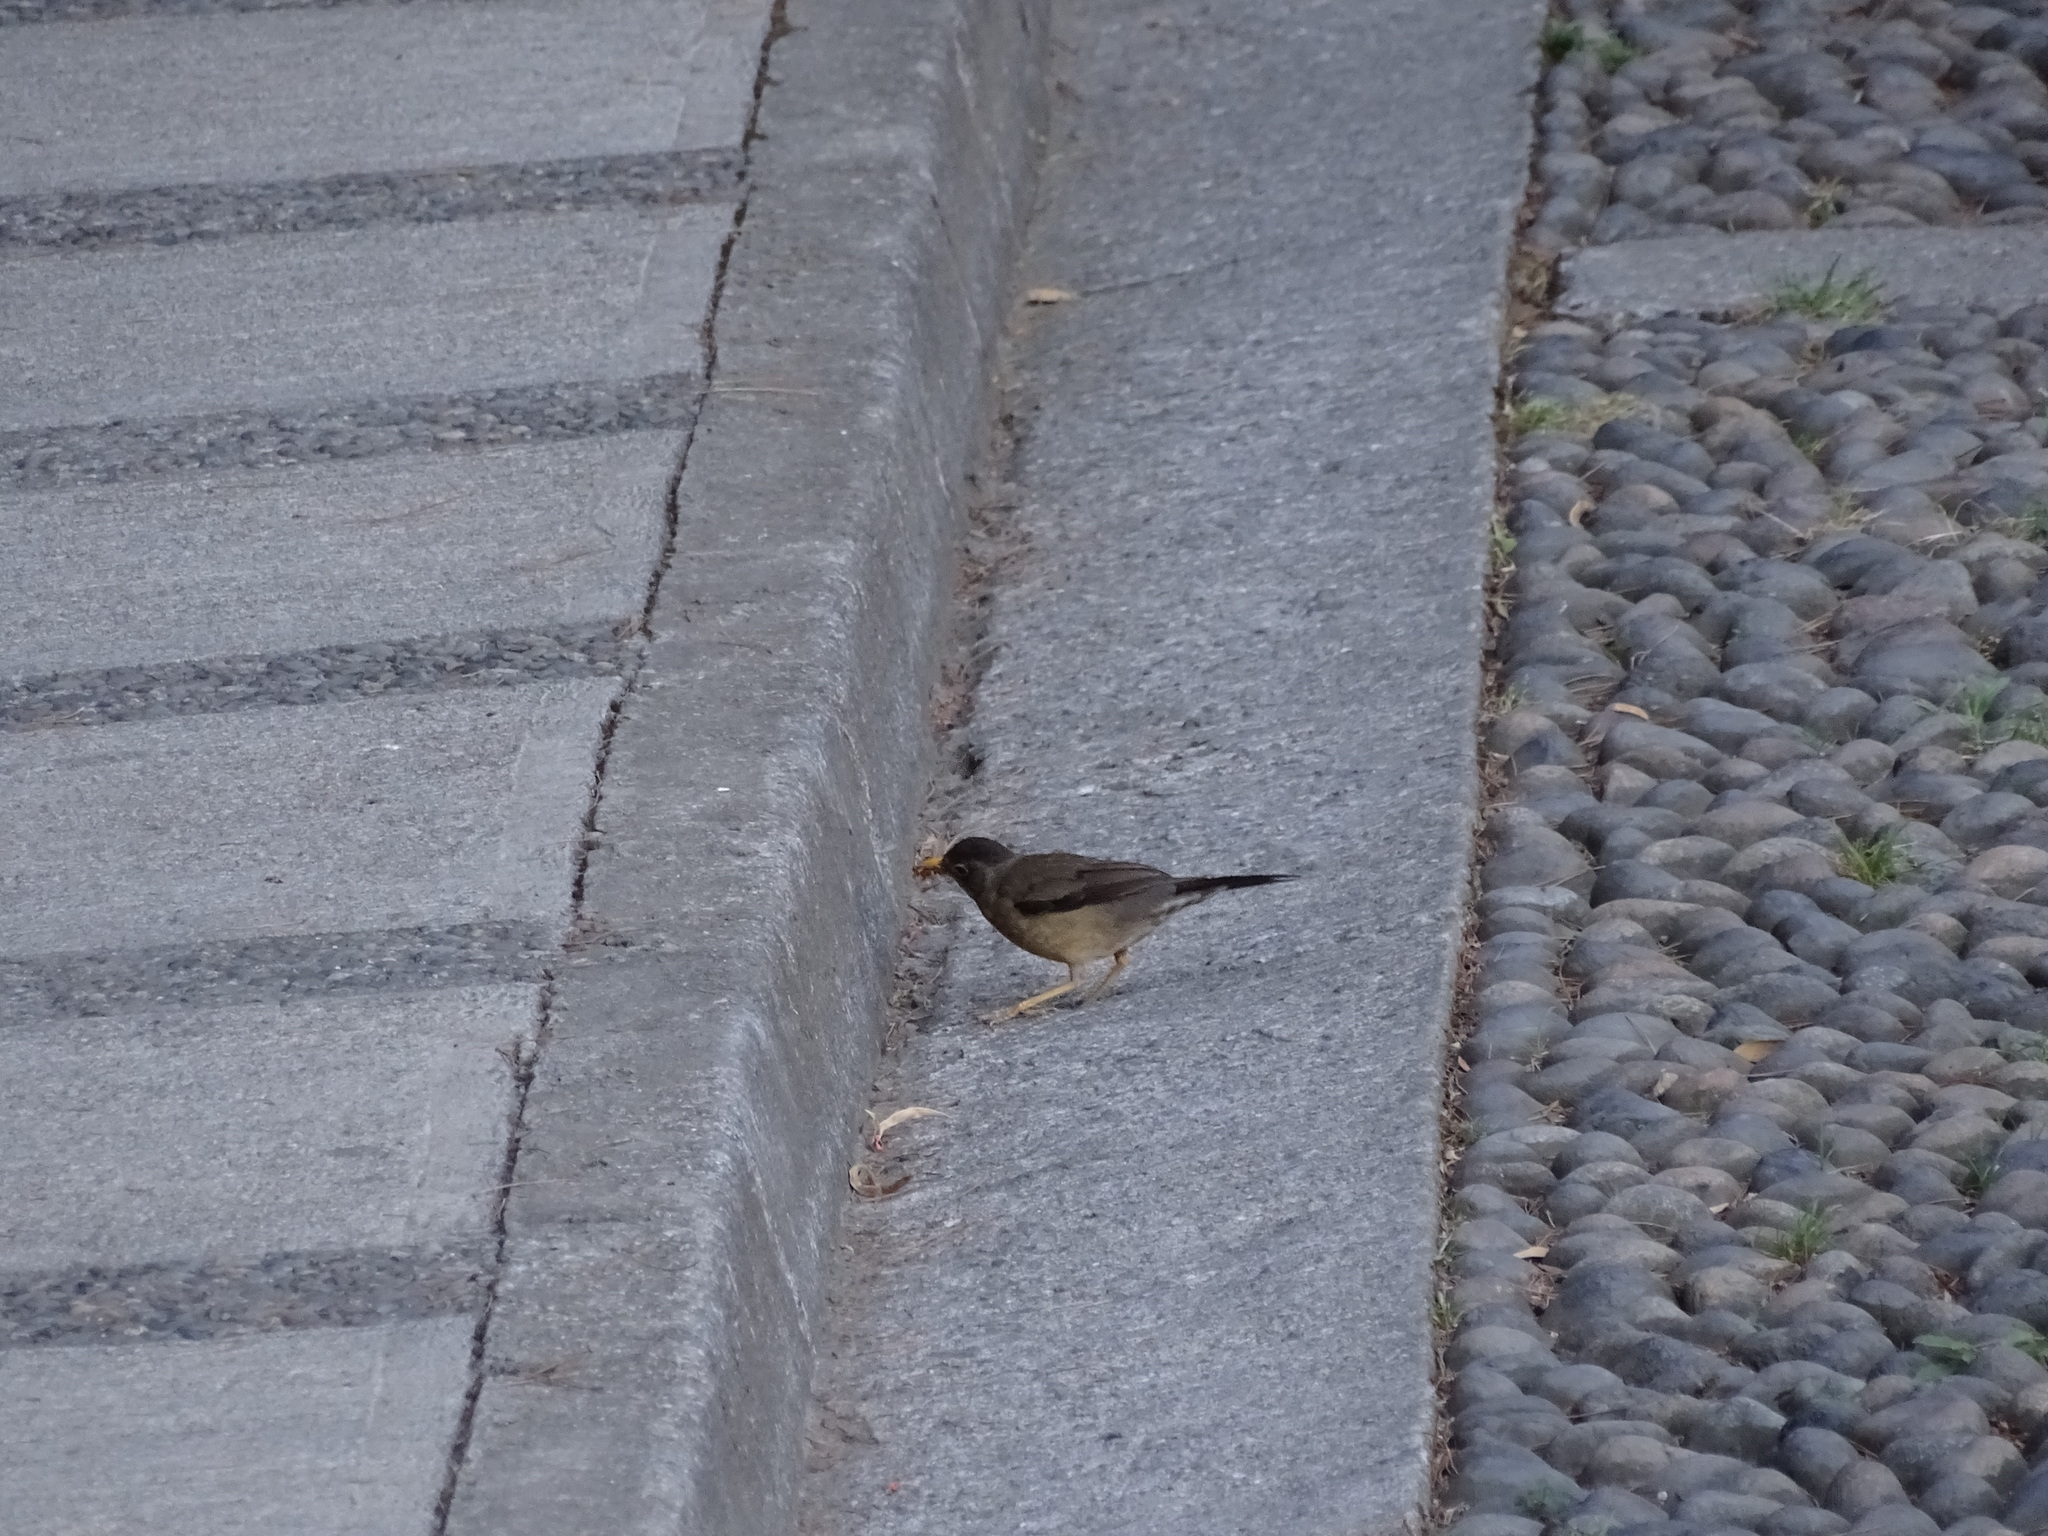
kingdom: Animalia
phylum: Chordata
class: Aves
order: Passeriformes
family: Turdidae
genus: Turdus
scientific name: Turdus falcklandii
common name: Austral thrush
